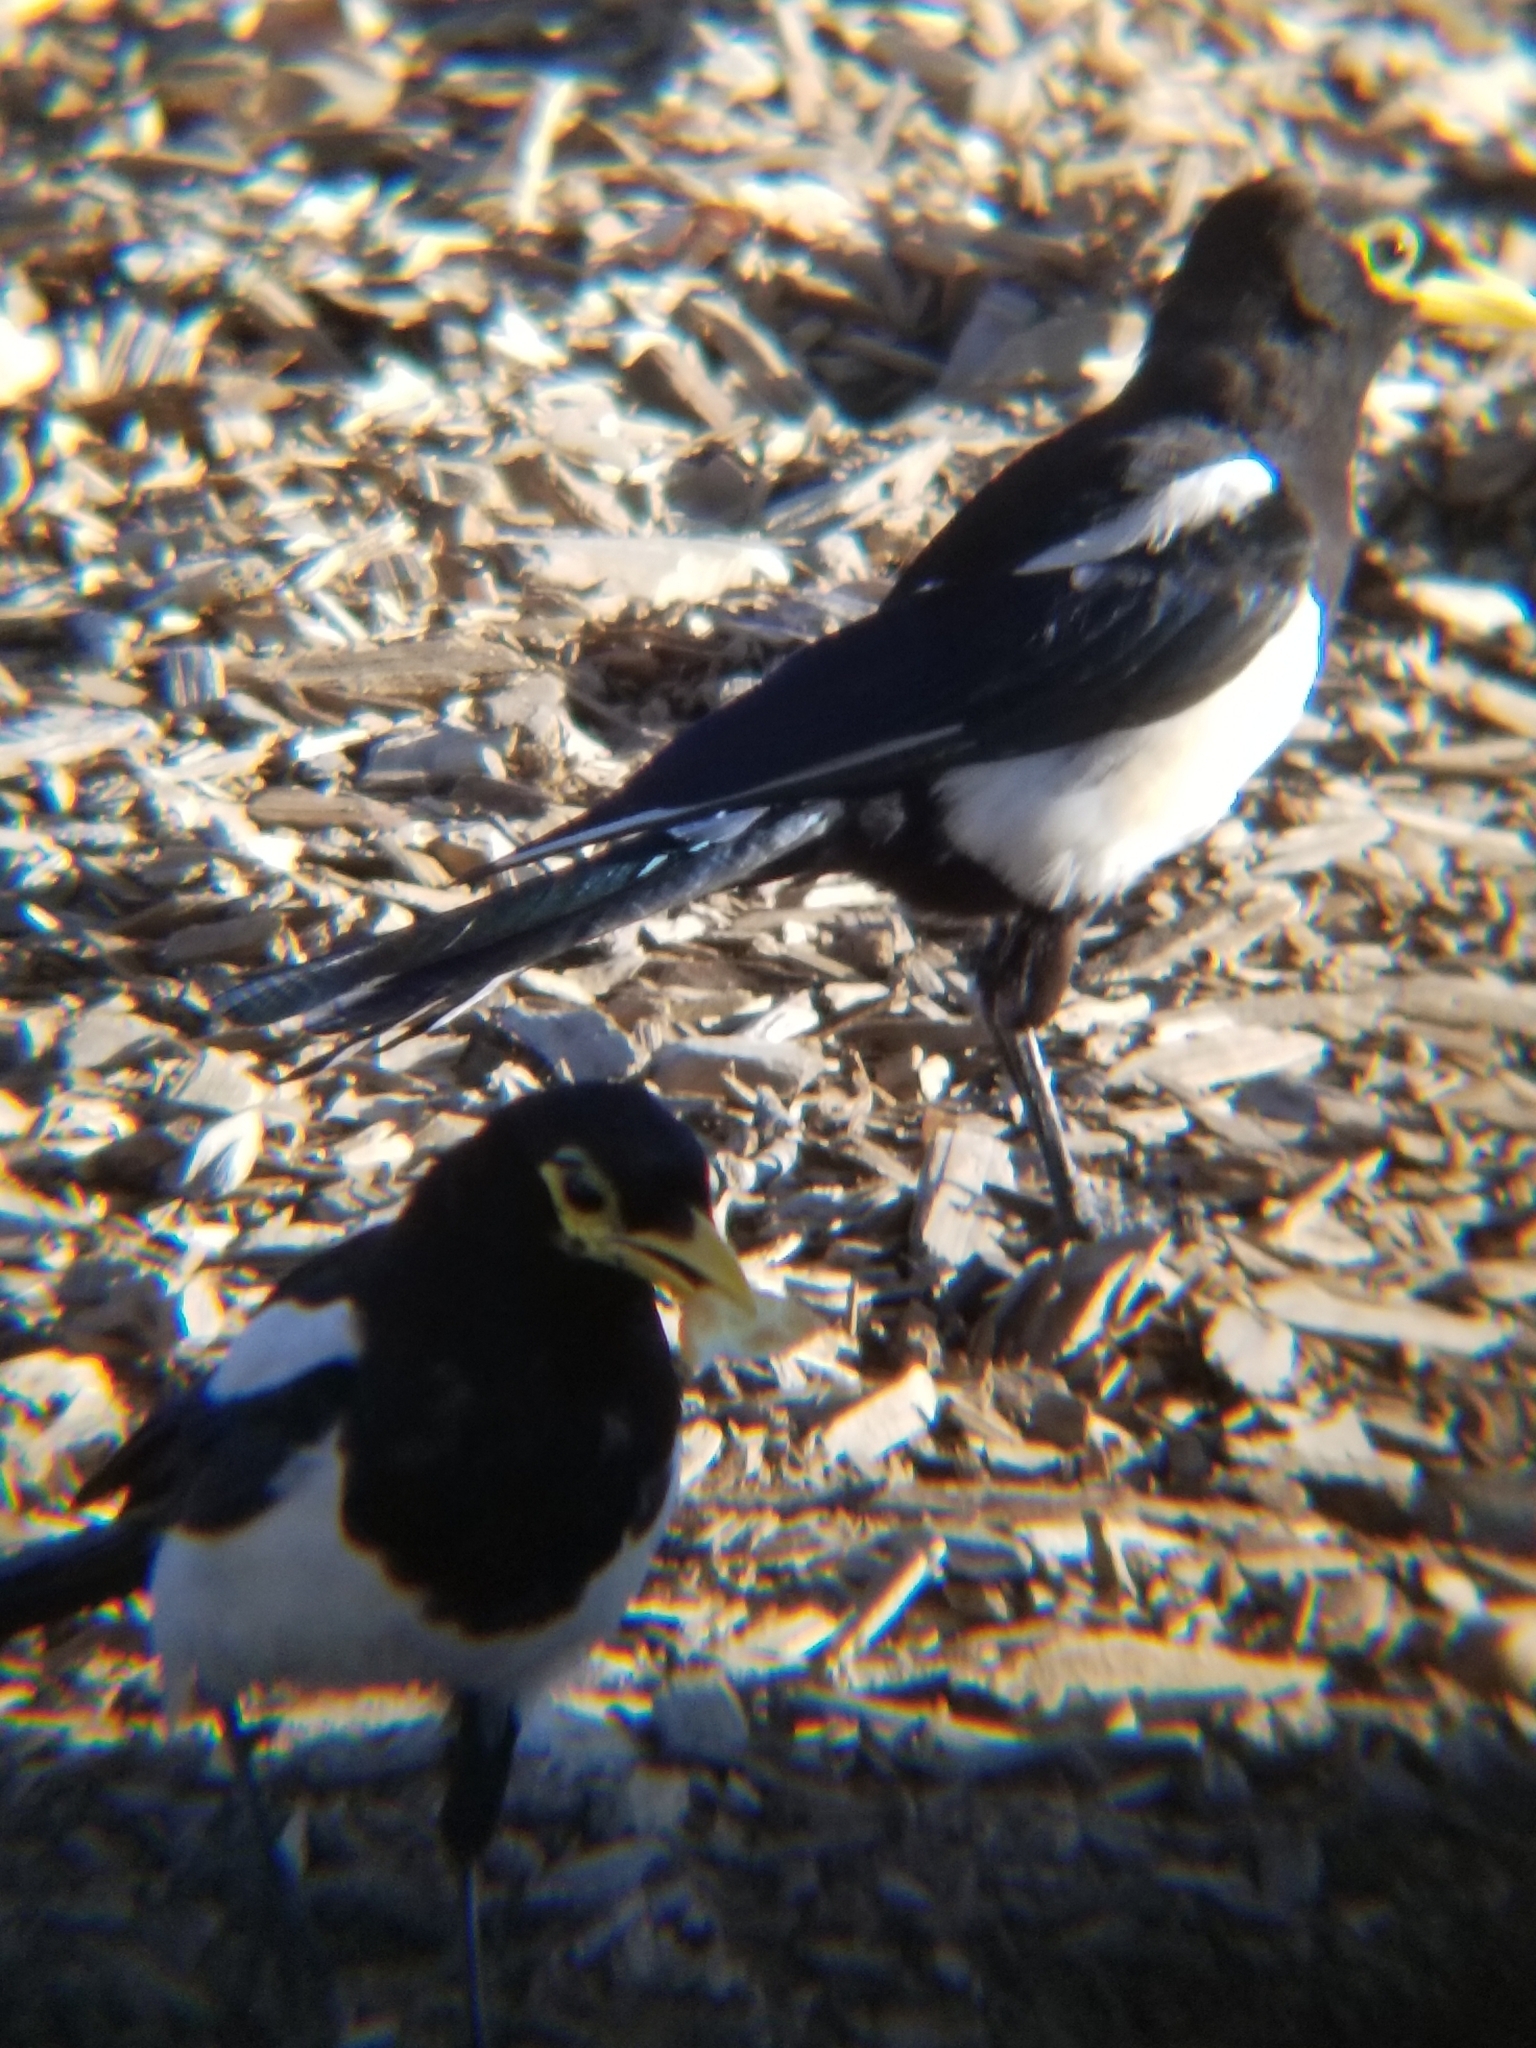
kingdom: Animalia
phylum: Chordata
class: Aves
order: Passeriformes
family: Corvidae
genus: Pica
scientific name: Pica nuttalli
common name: Yellow-billed magpie
